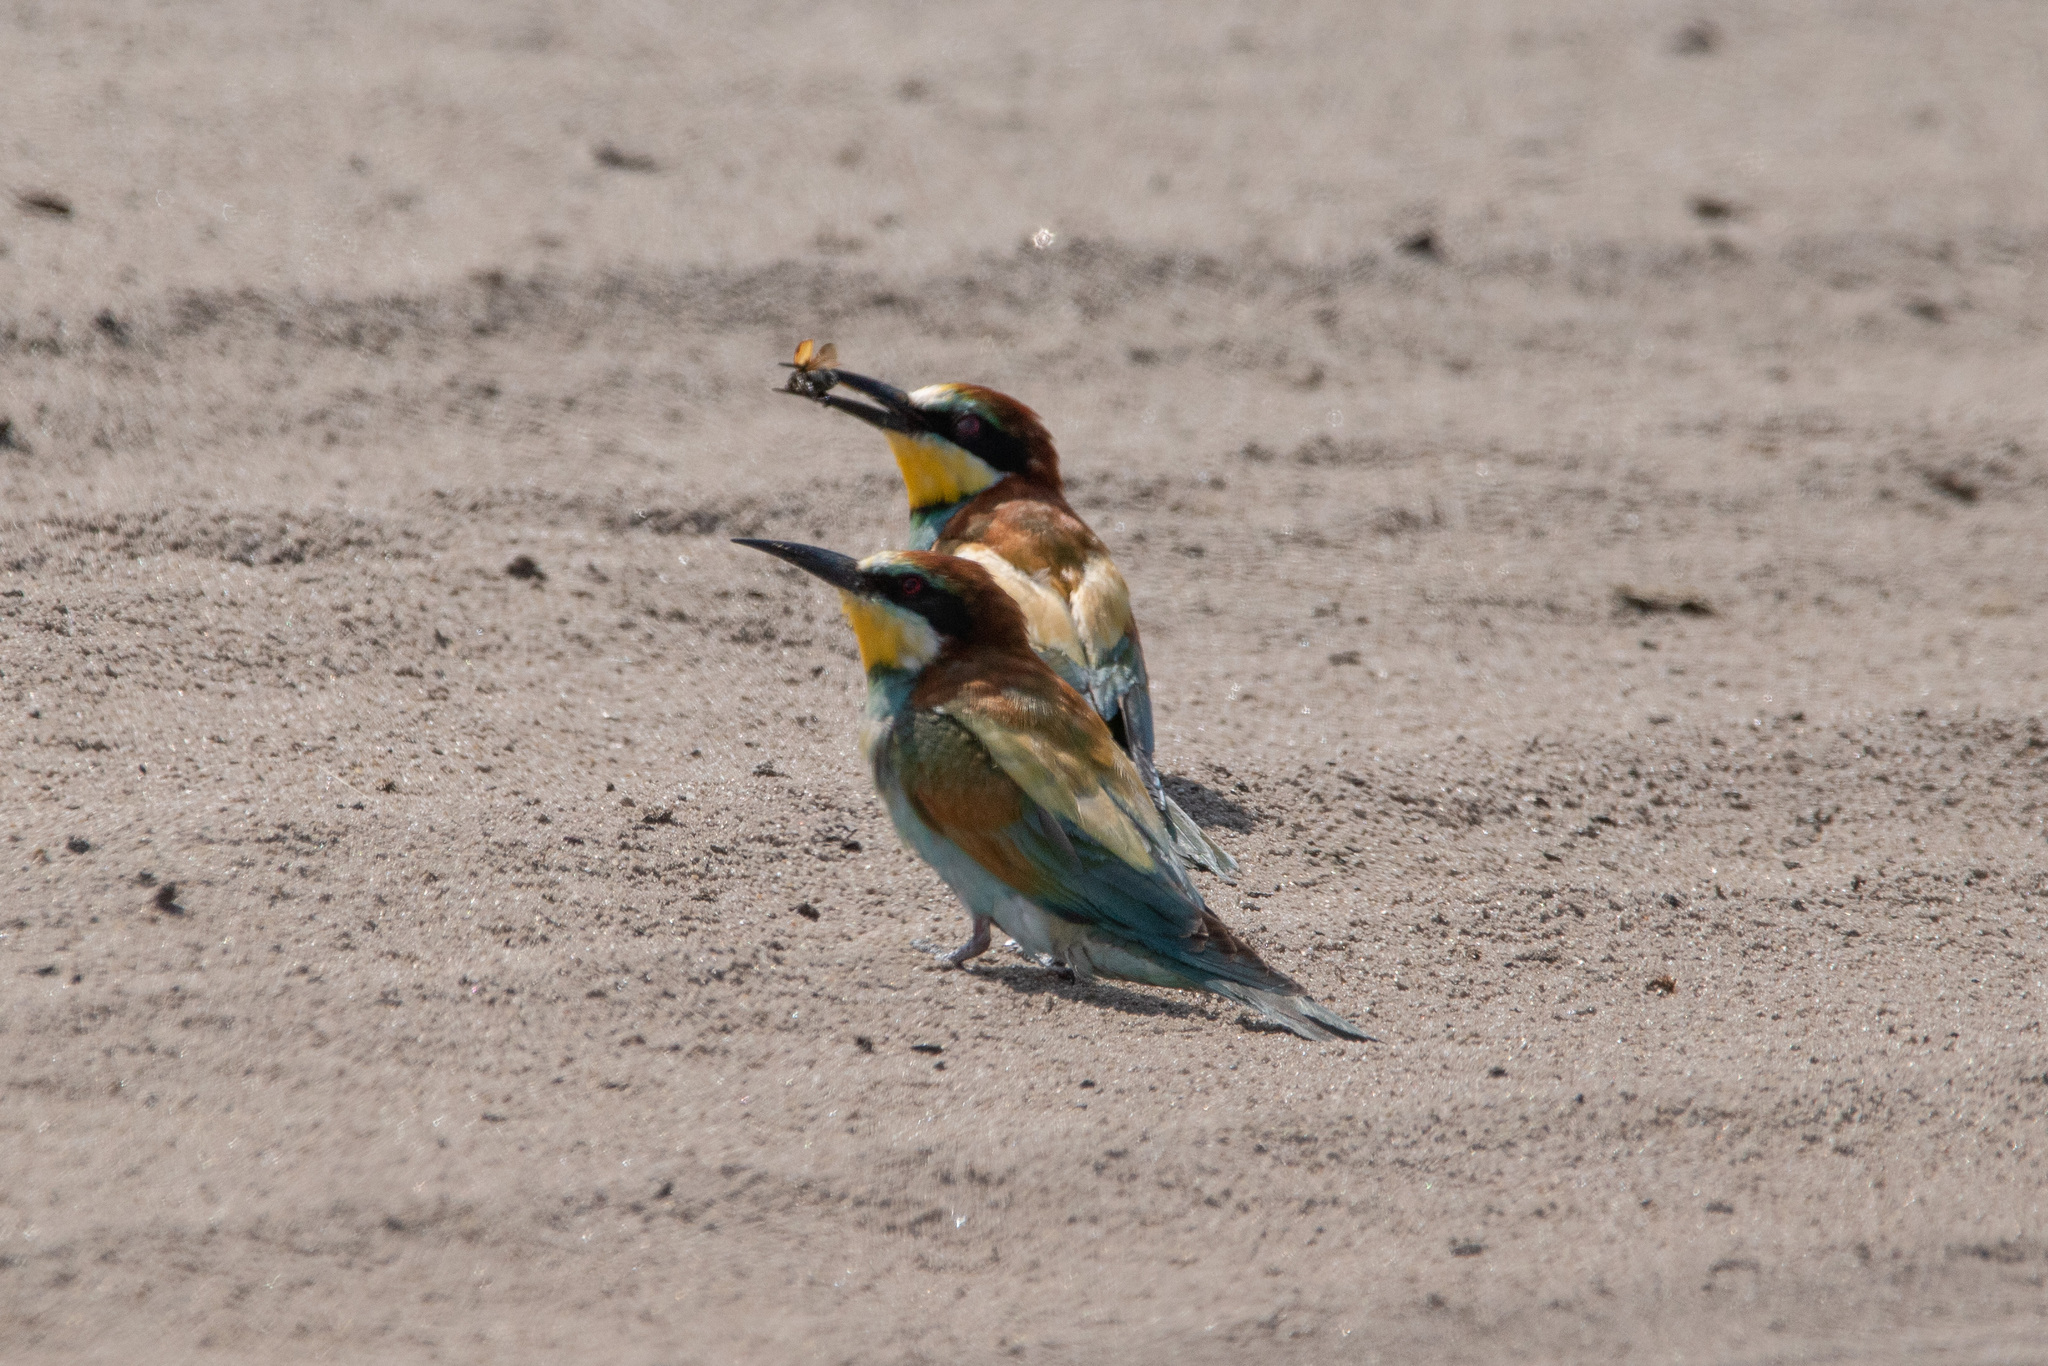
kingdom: Animalia
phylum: Chordata
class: Aves
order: Coraciiformes
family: Meropidae
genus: Merops
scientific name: Merops apiaster
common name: European bee-eater
